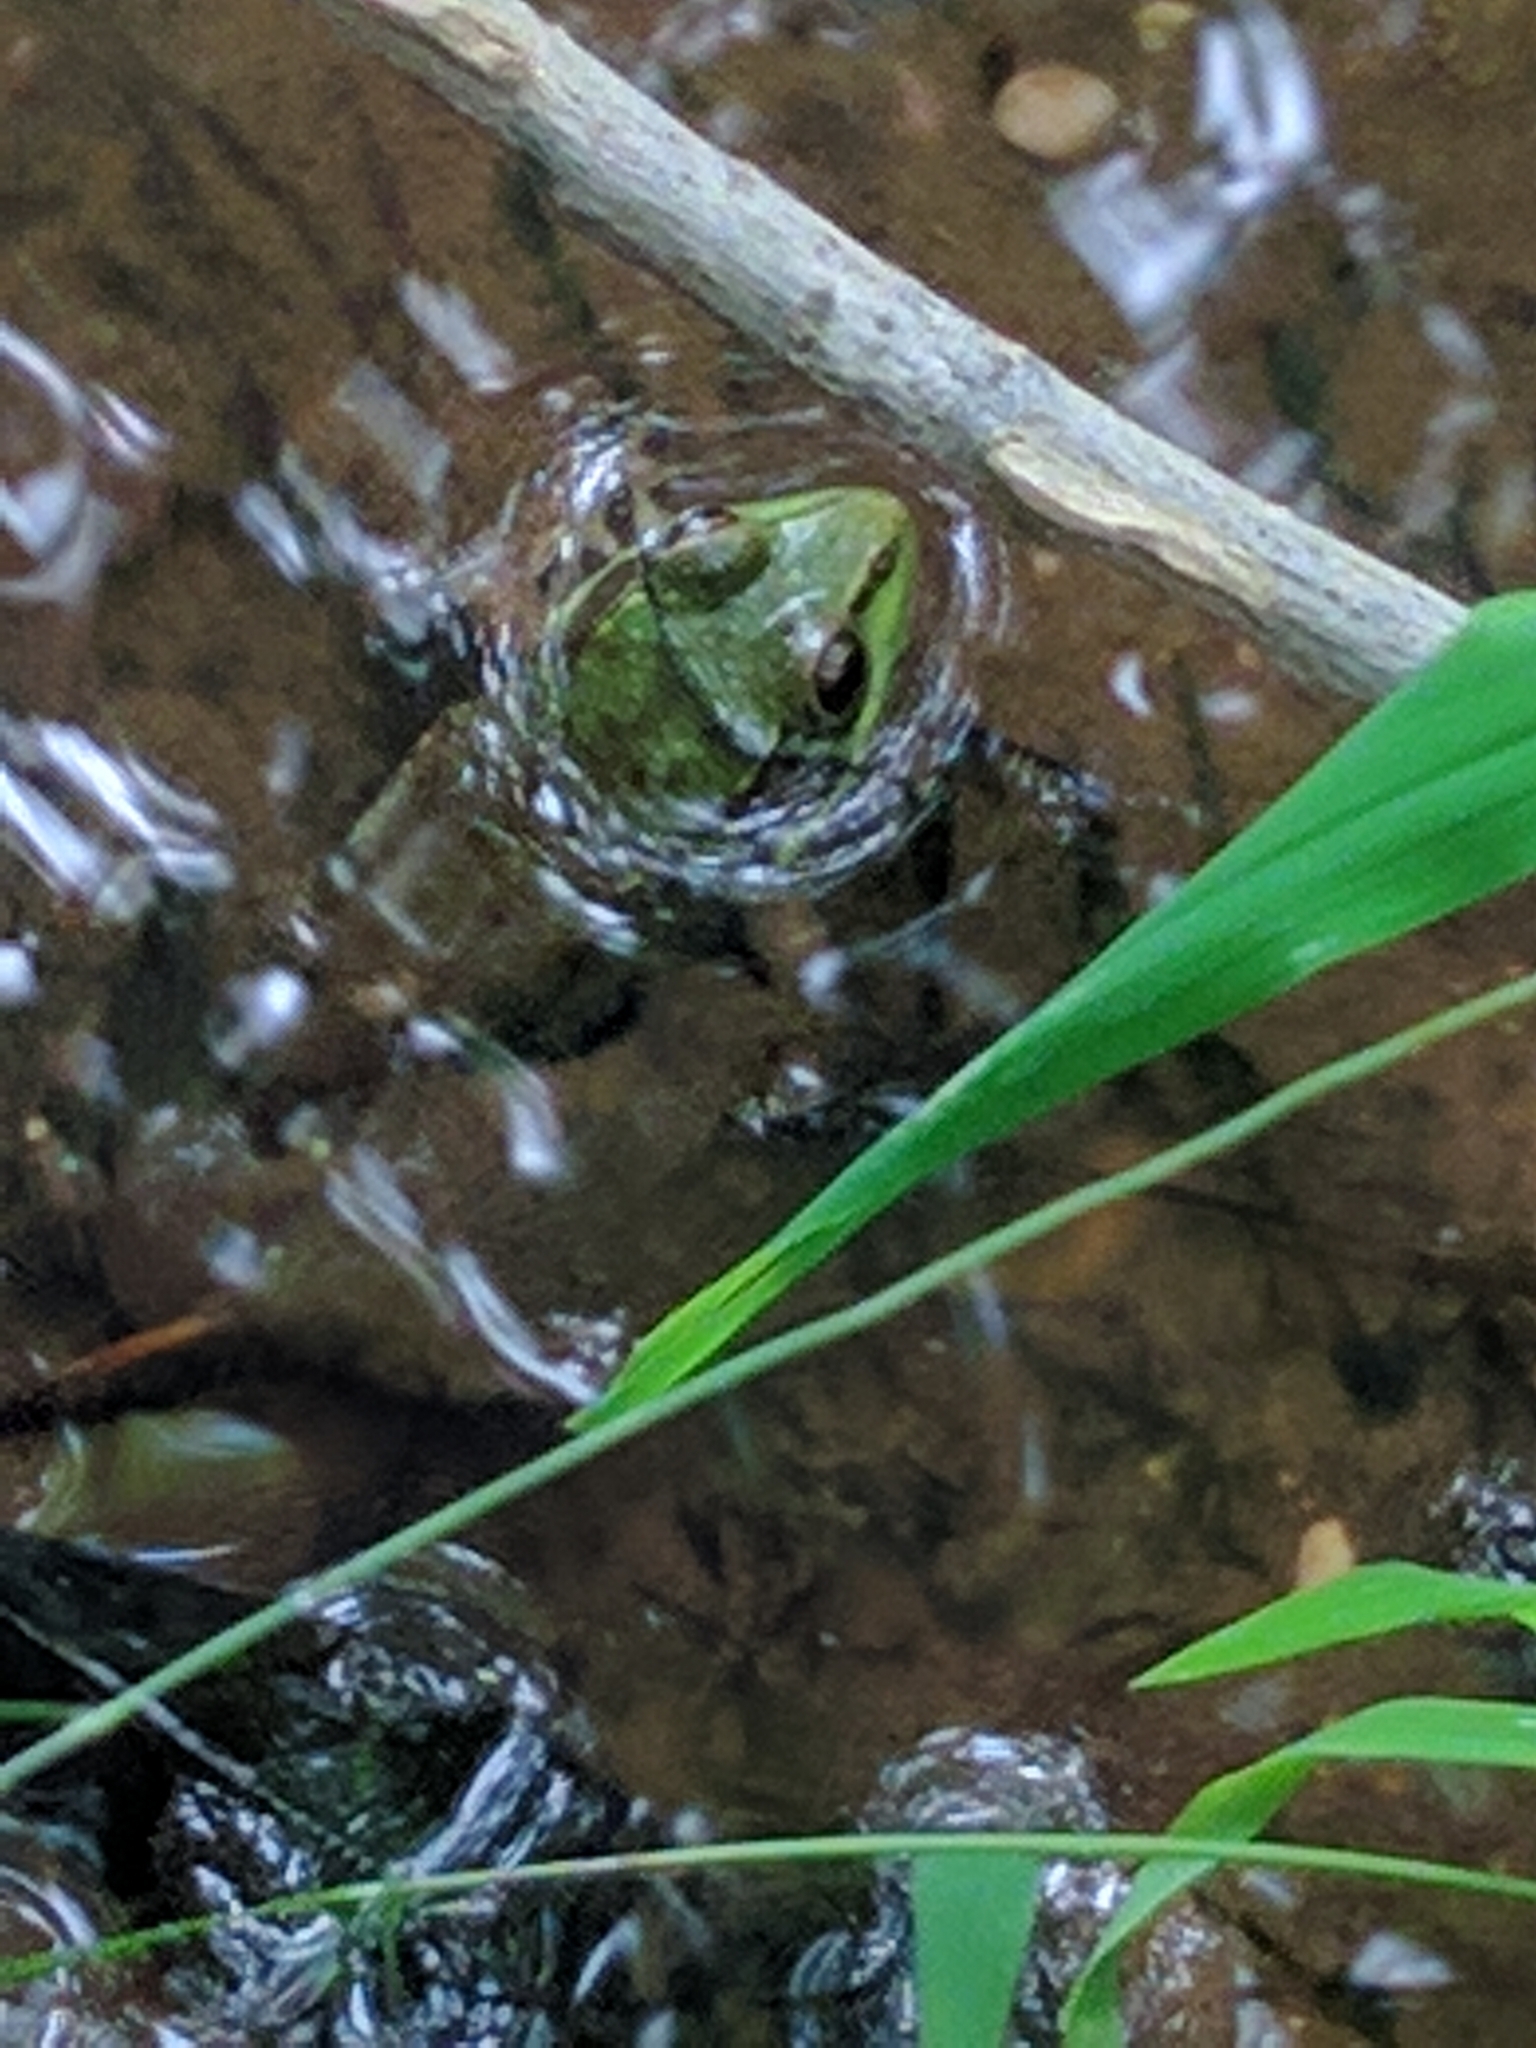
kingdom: Animalia
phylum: Chordata
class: Amphibia
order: Anura
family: Ranidae
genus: Lithobates
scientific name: Lithobates clamitans
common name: Green frog
